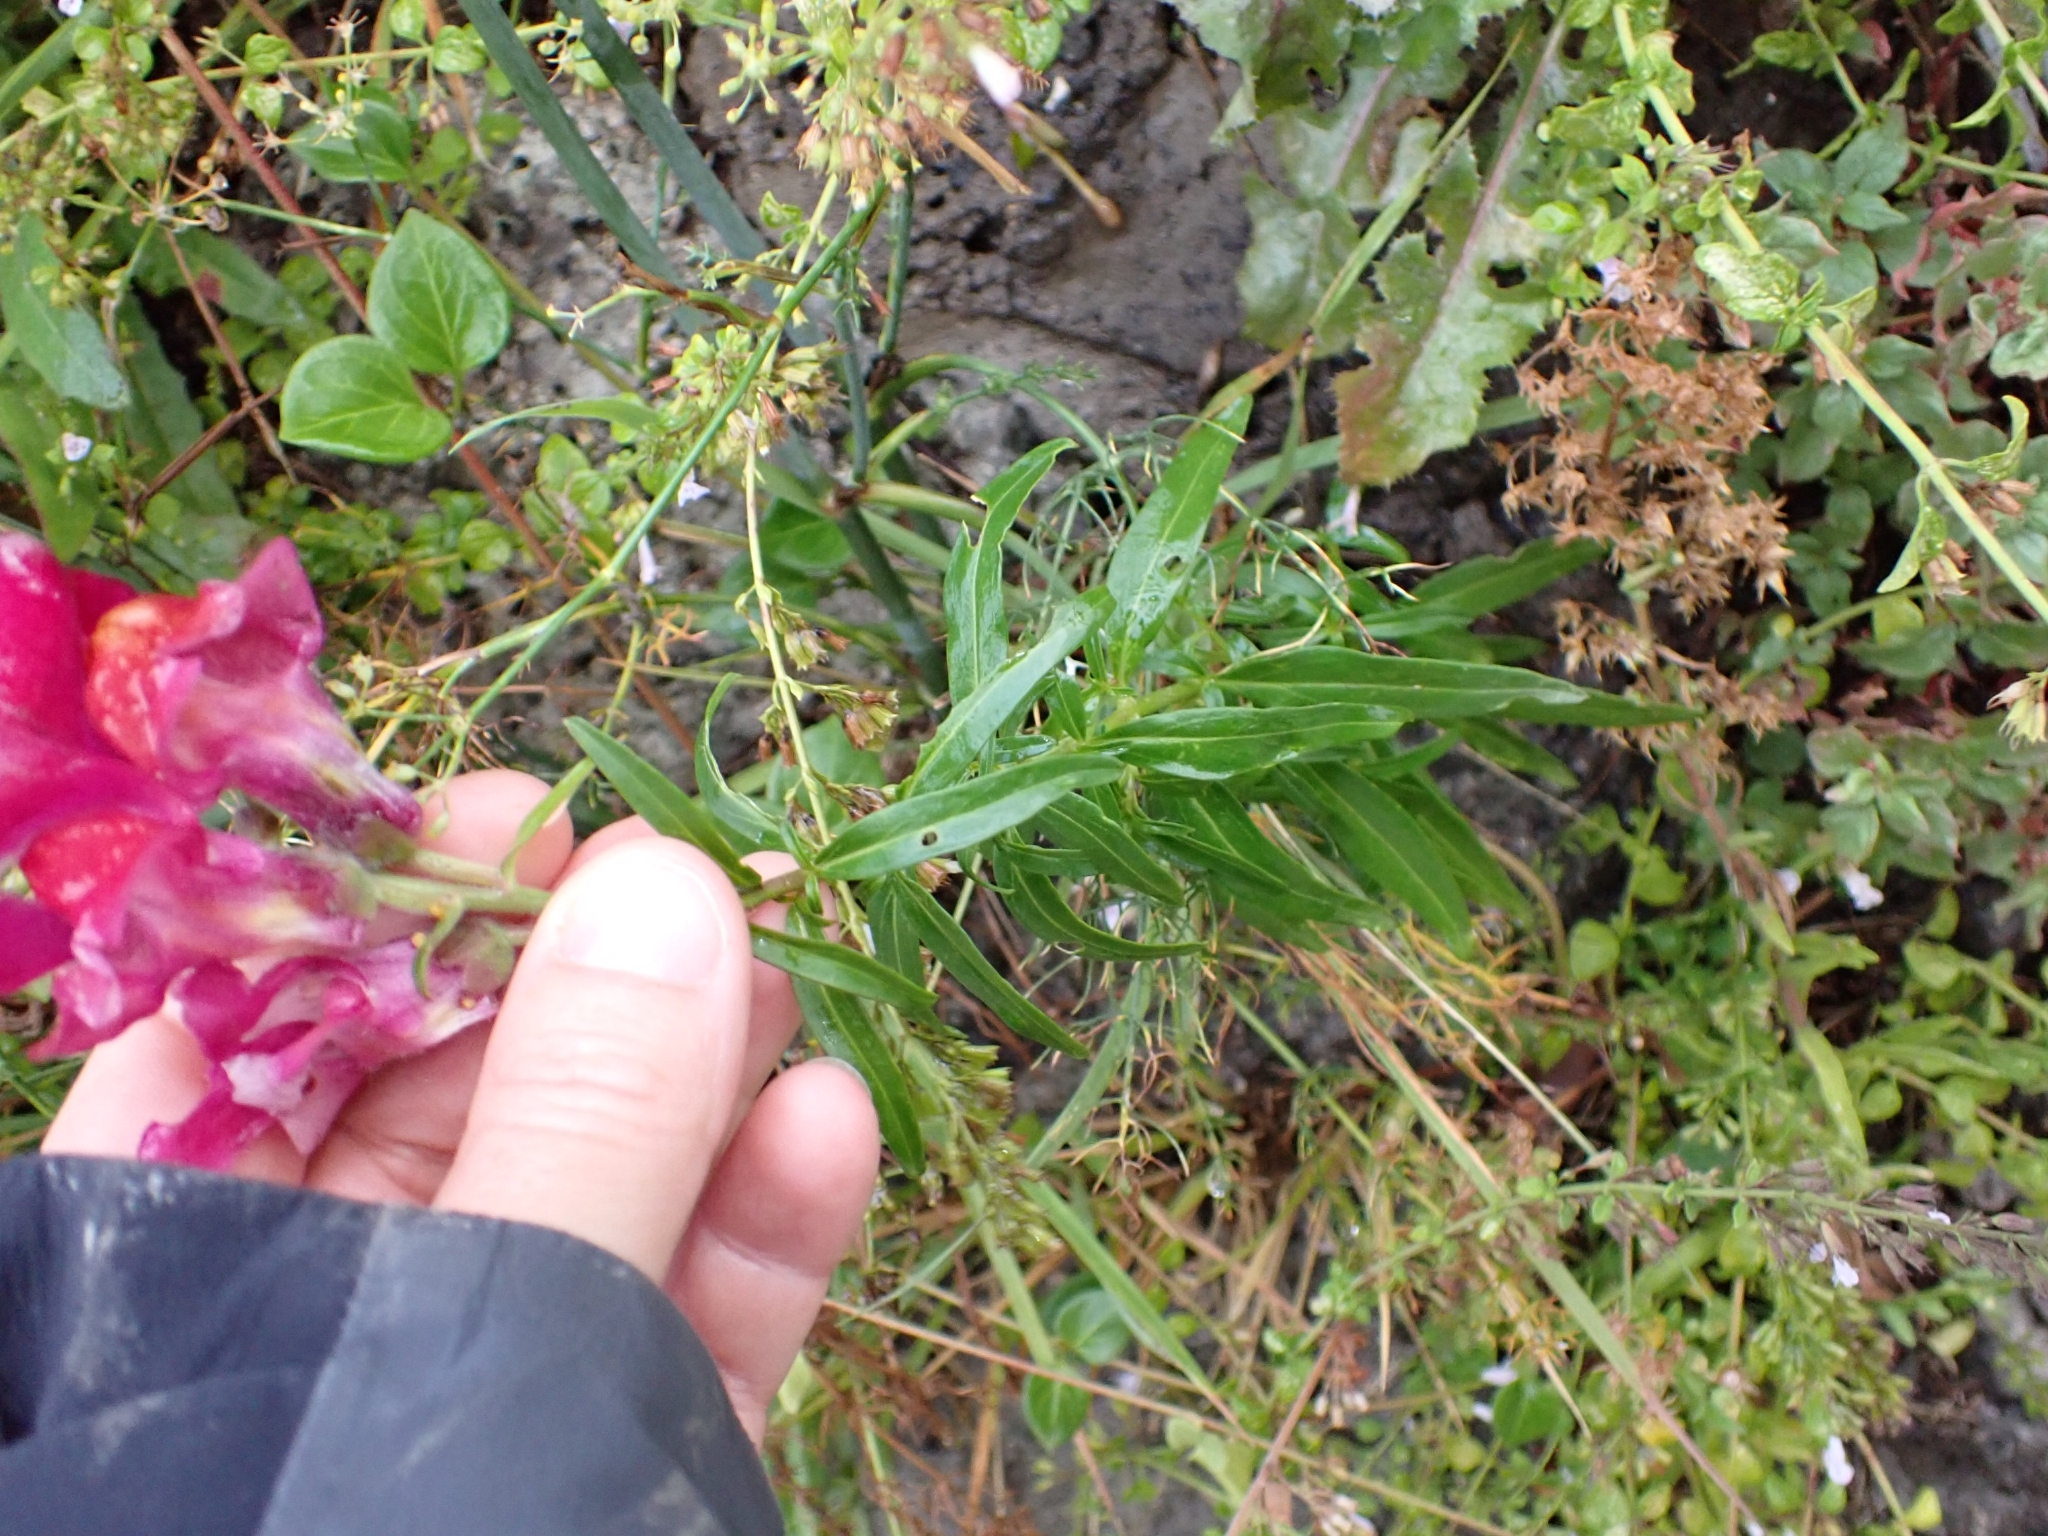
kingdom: Plantae
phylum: Tracheophyta
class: Magnoliopsida
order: Lamiales
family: Plantaginaceae
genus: Antirrhinum
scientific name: Antirrhinum majus
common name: Snapdragon
